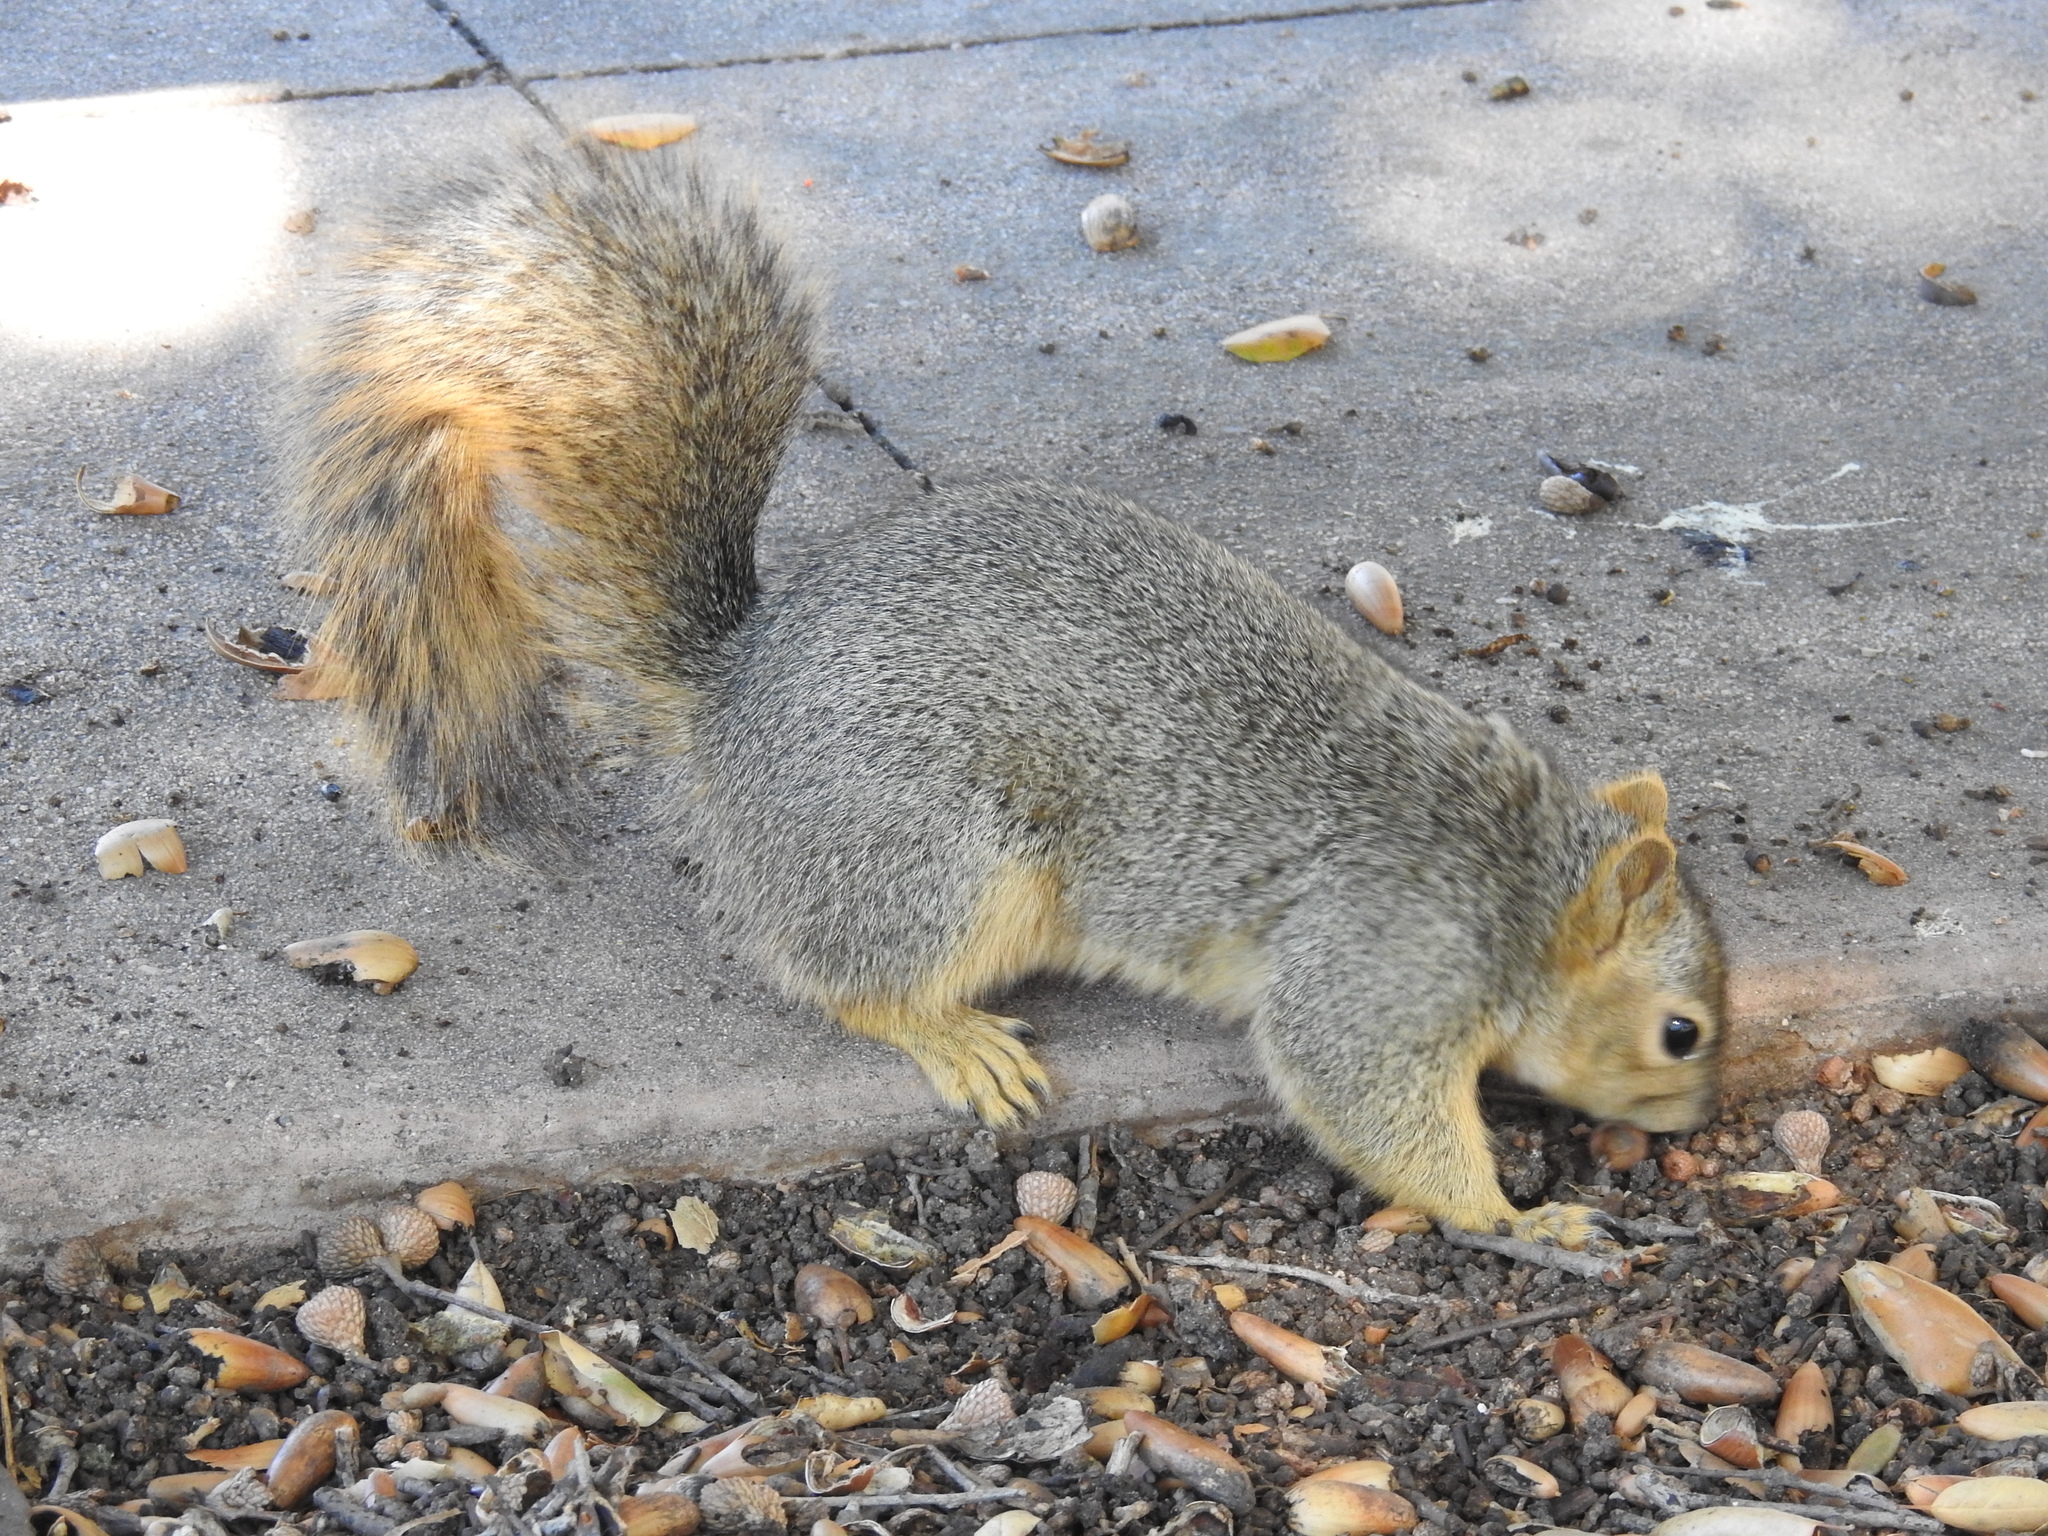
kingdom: Animalia
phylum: Chordata
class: Mammalia
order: Rodentia
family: Sciuridae
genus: Sciurus
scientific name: Sciurus niger
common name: Fox squirrel
